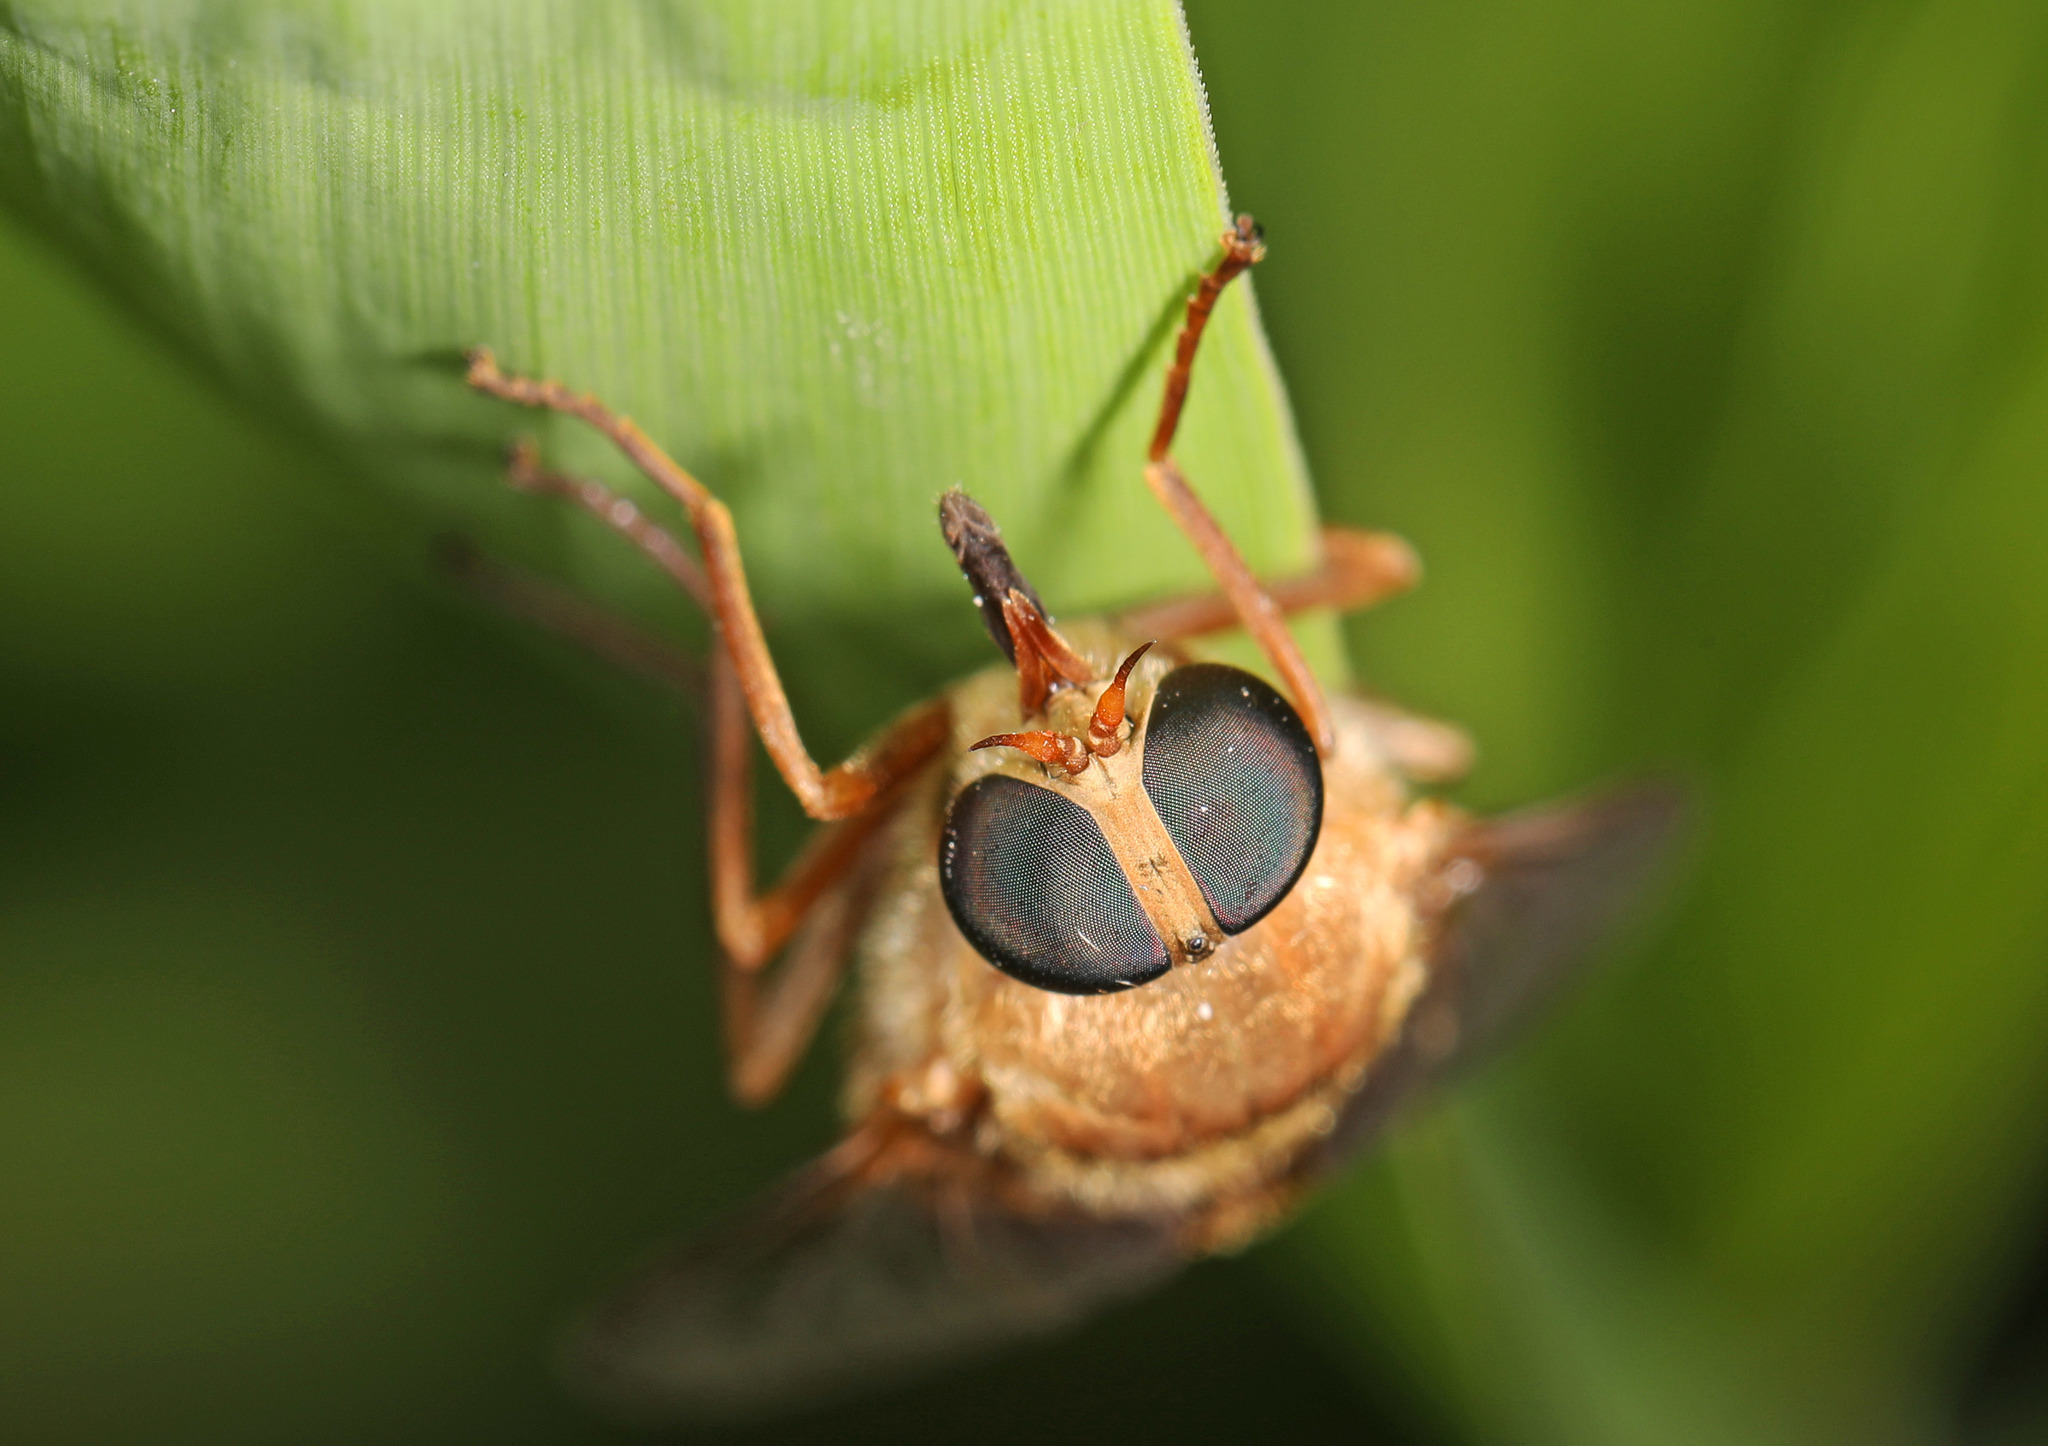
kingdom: Animalia
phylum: Arthropoda
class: Insecta
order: Diptera
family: Tabanidae
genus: Stonemyia
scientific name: Stonemyia isabellina
